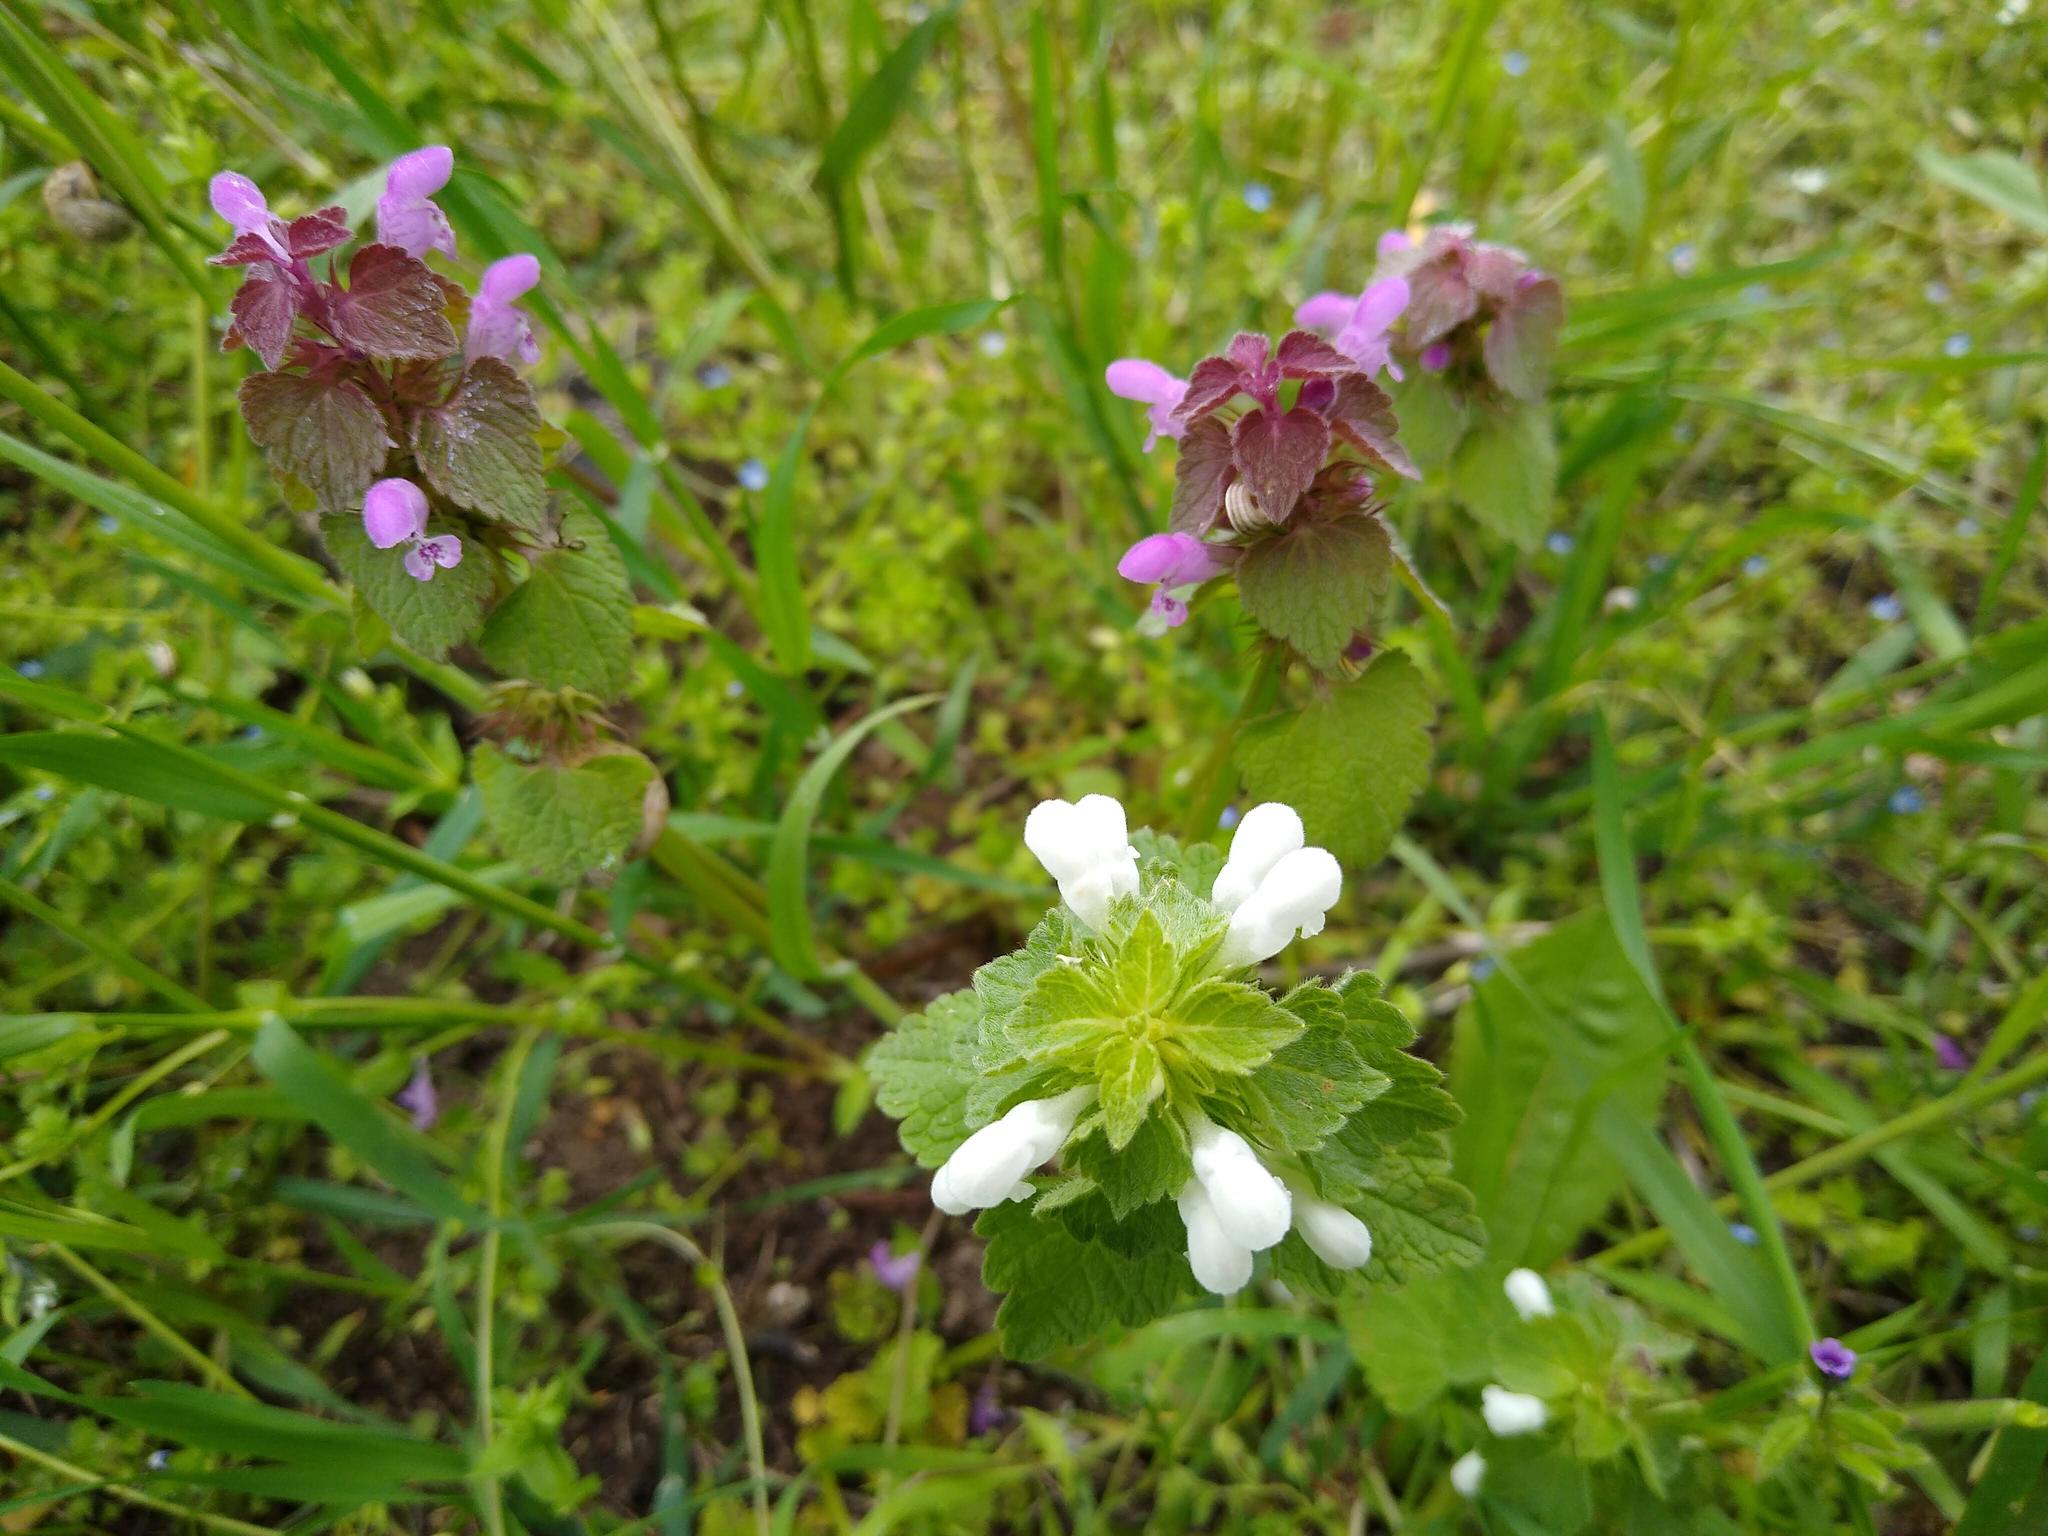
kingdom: Plantae
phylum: Tracheophyta
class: Magnoliopsida
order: Lamiales
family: Lamiaceae
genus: Lamium
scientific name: Lamium purpureum
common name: Red dead-nettle
